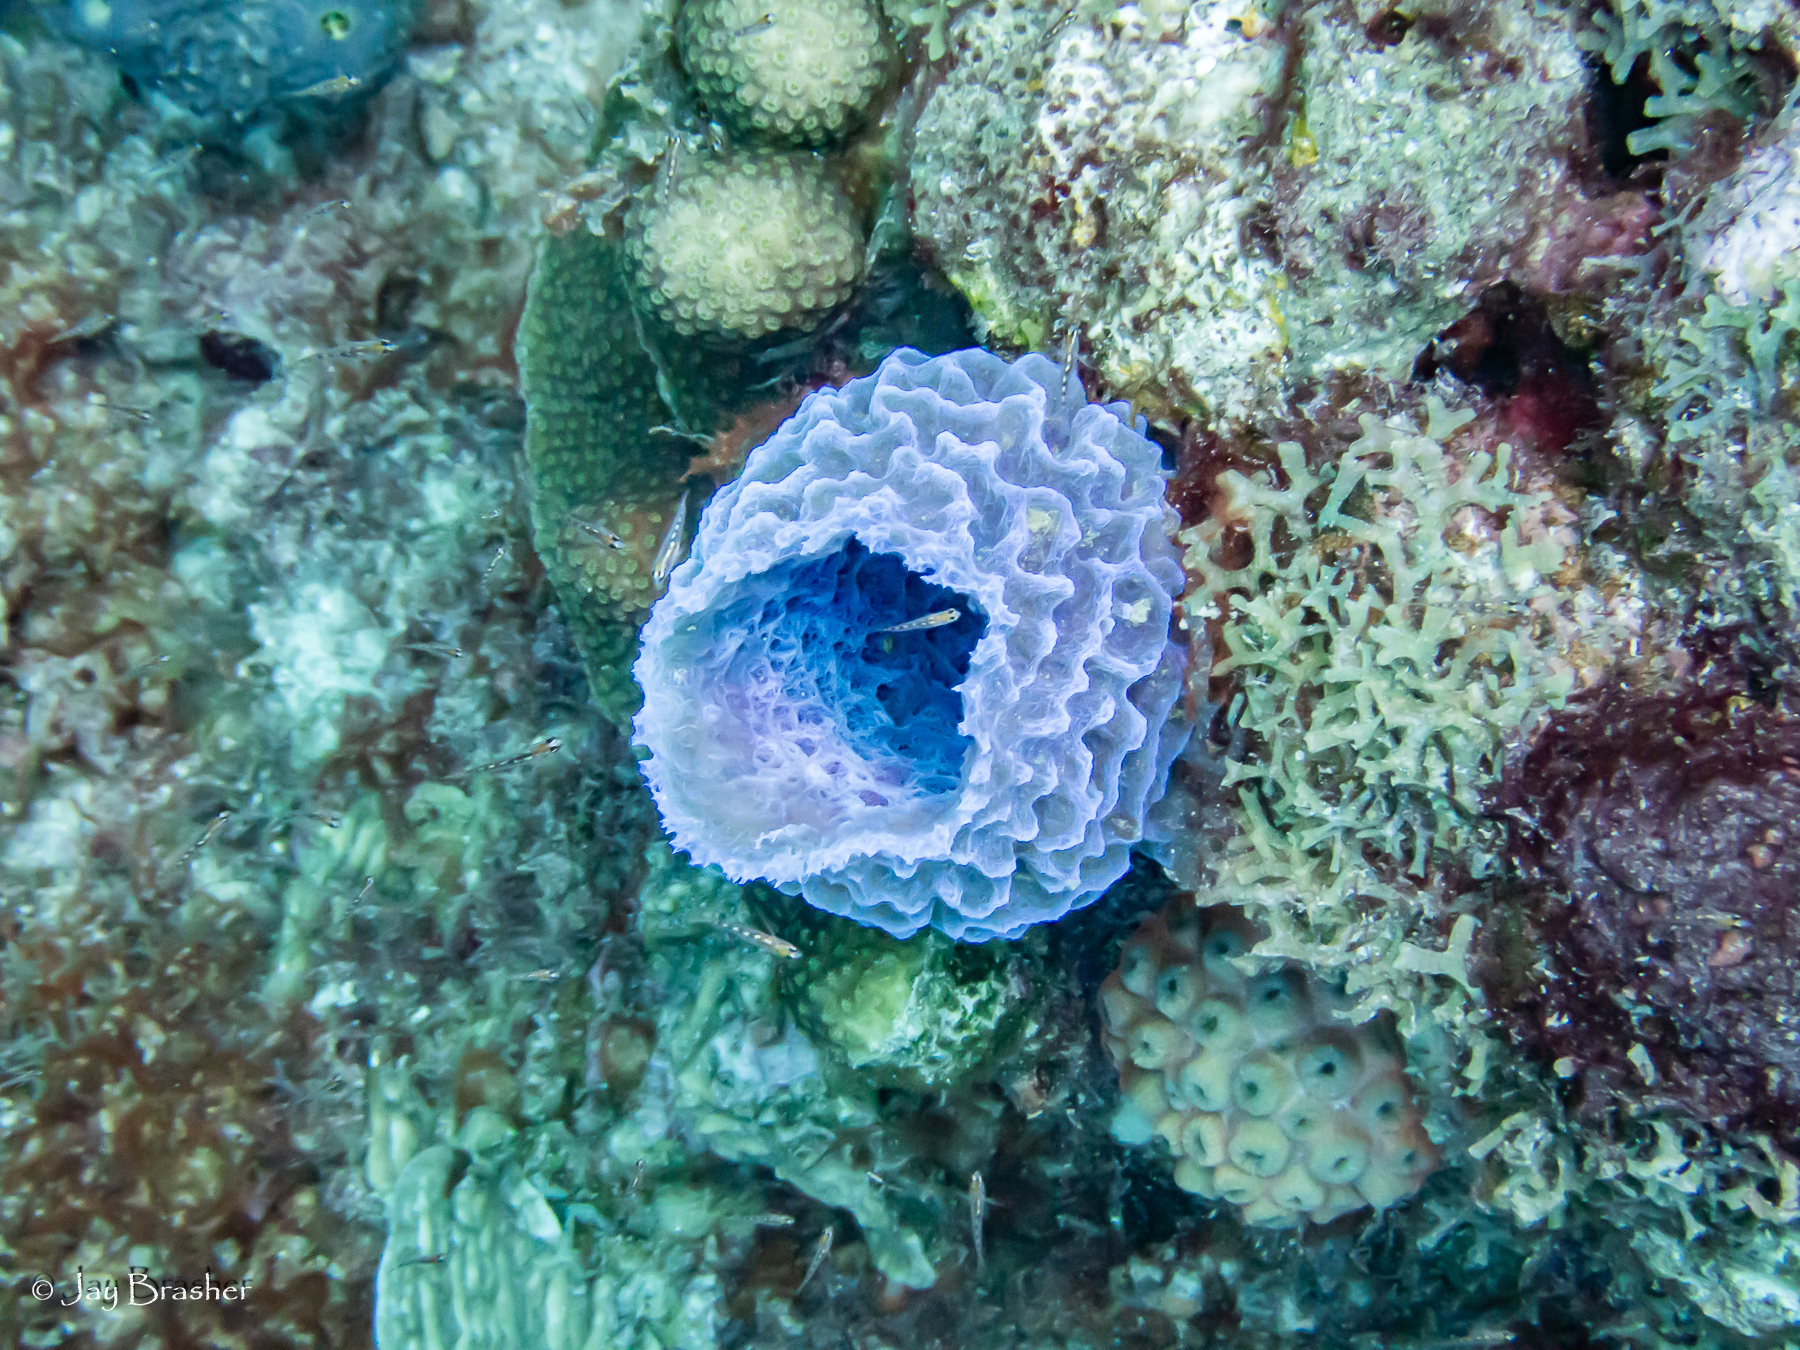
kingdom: Animalia
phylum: Porifera
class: Demospongiae
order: Haplosclerida
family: Callyspongiidae
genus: Callyspongia
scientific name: Callyspongia plicifera
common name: Azure vase sponge
